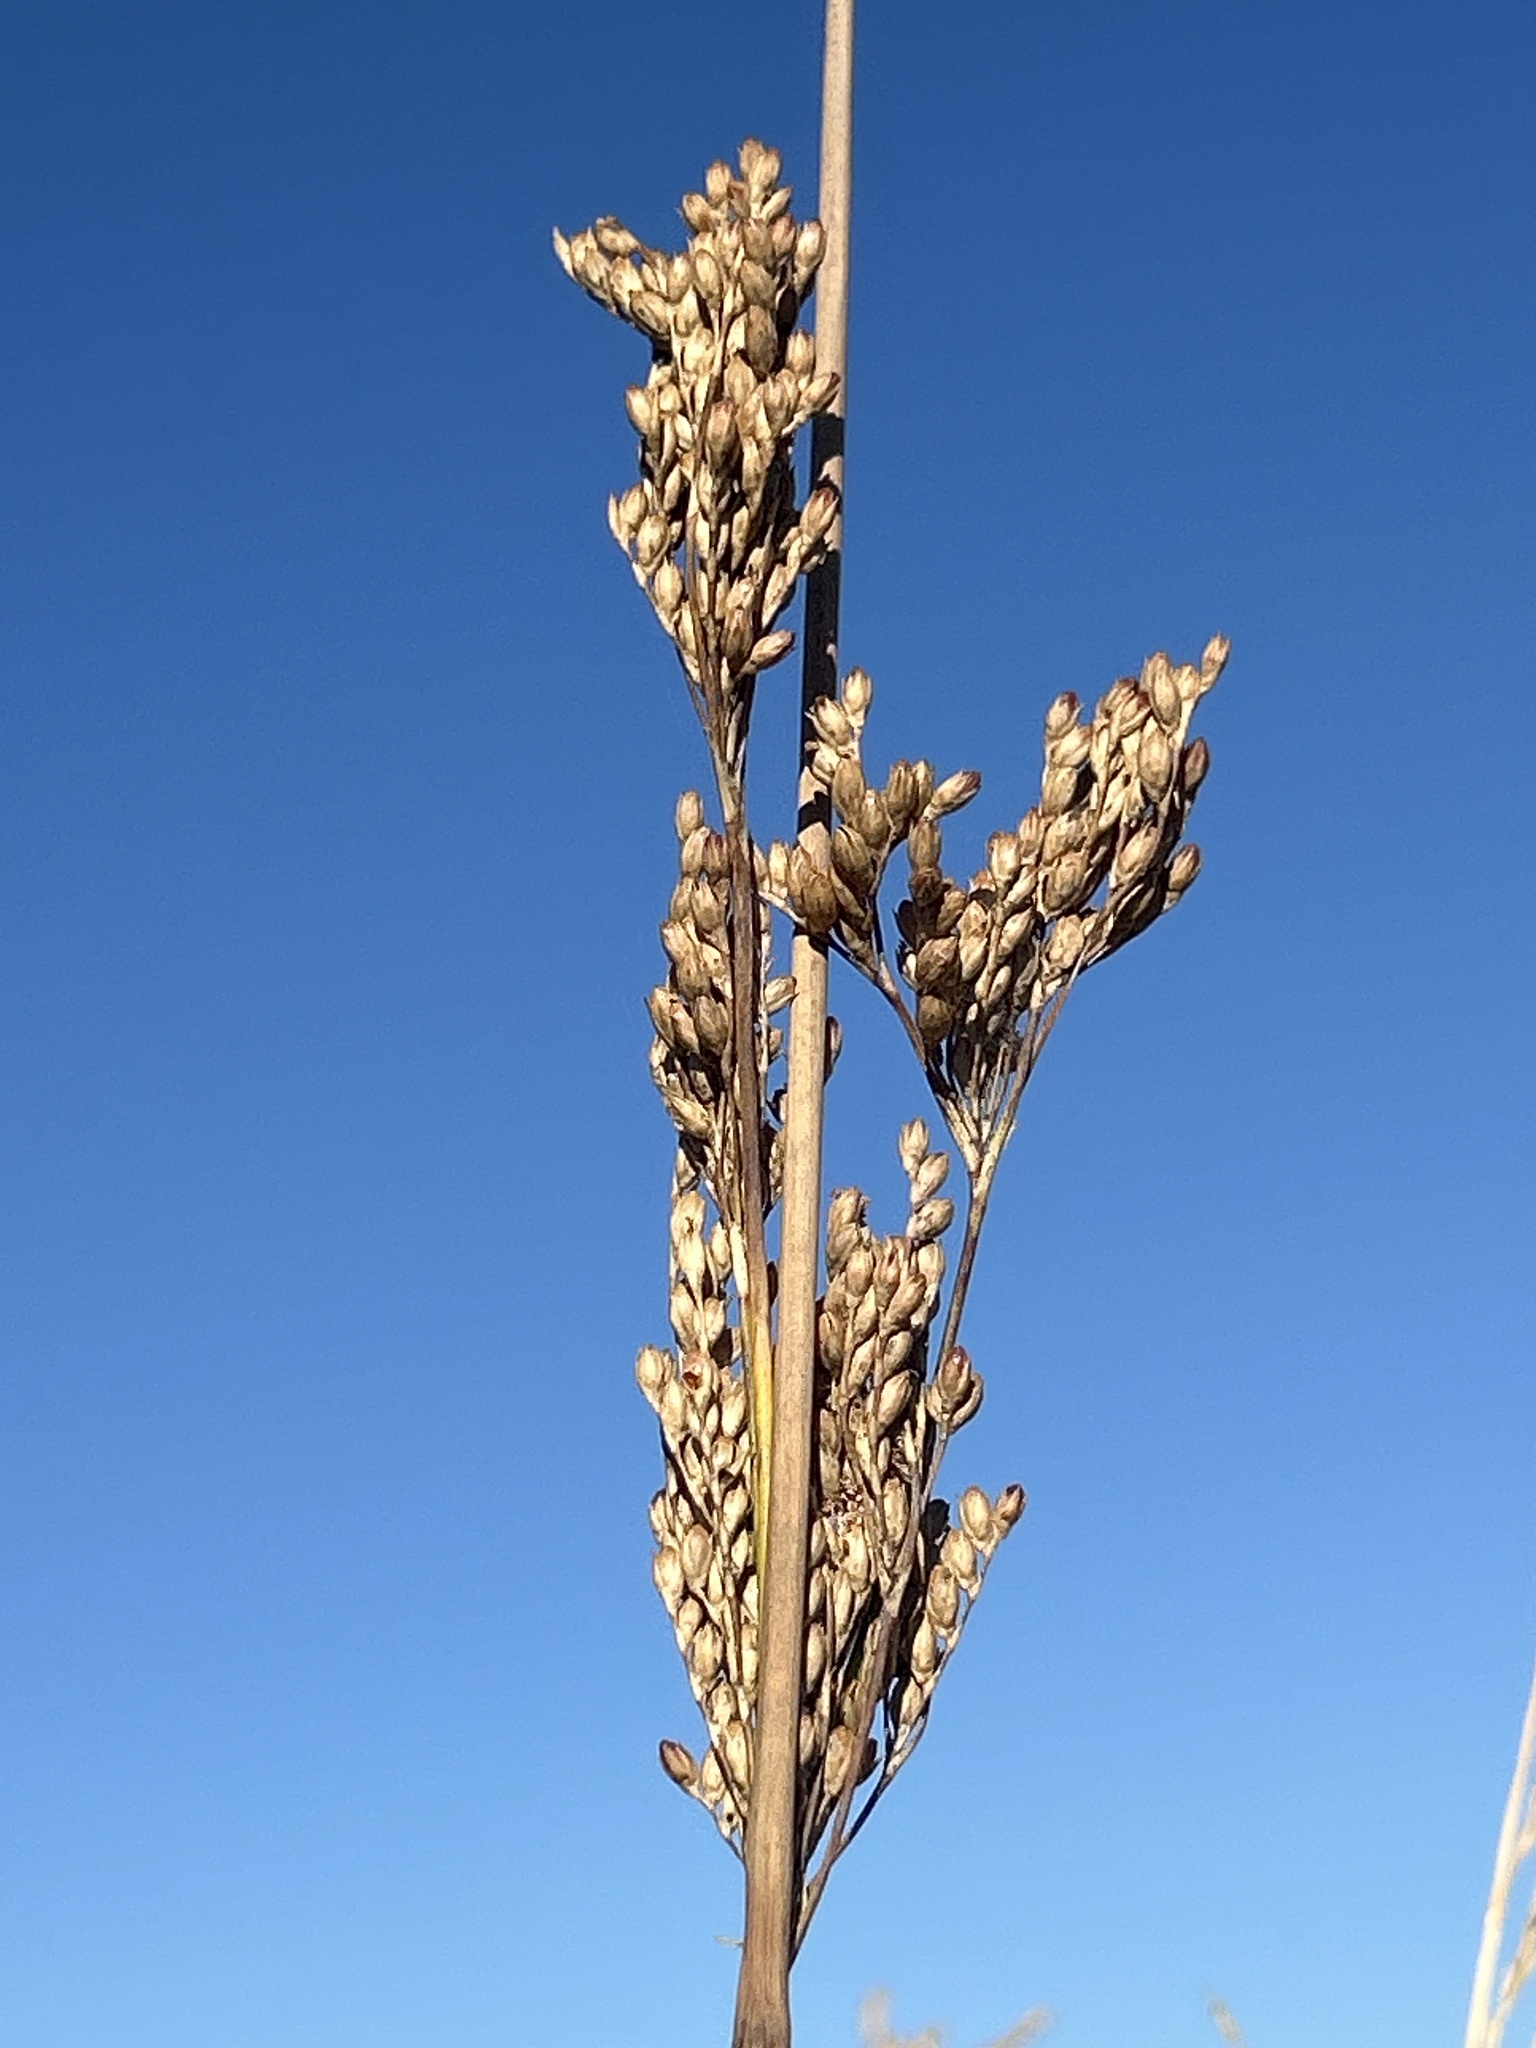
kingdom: Plantae
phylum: Tracheophyta
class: Liliopsida
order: Poales
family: Juncaceae
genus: Juncus
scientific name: Juncus pallidus
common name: Great soft-rush
